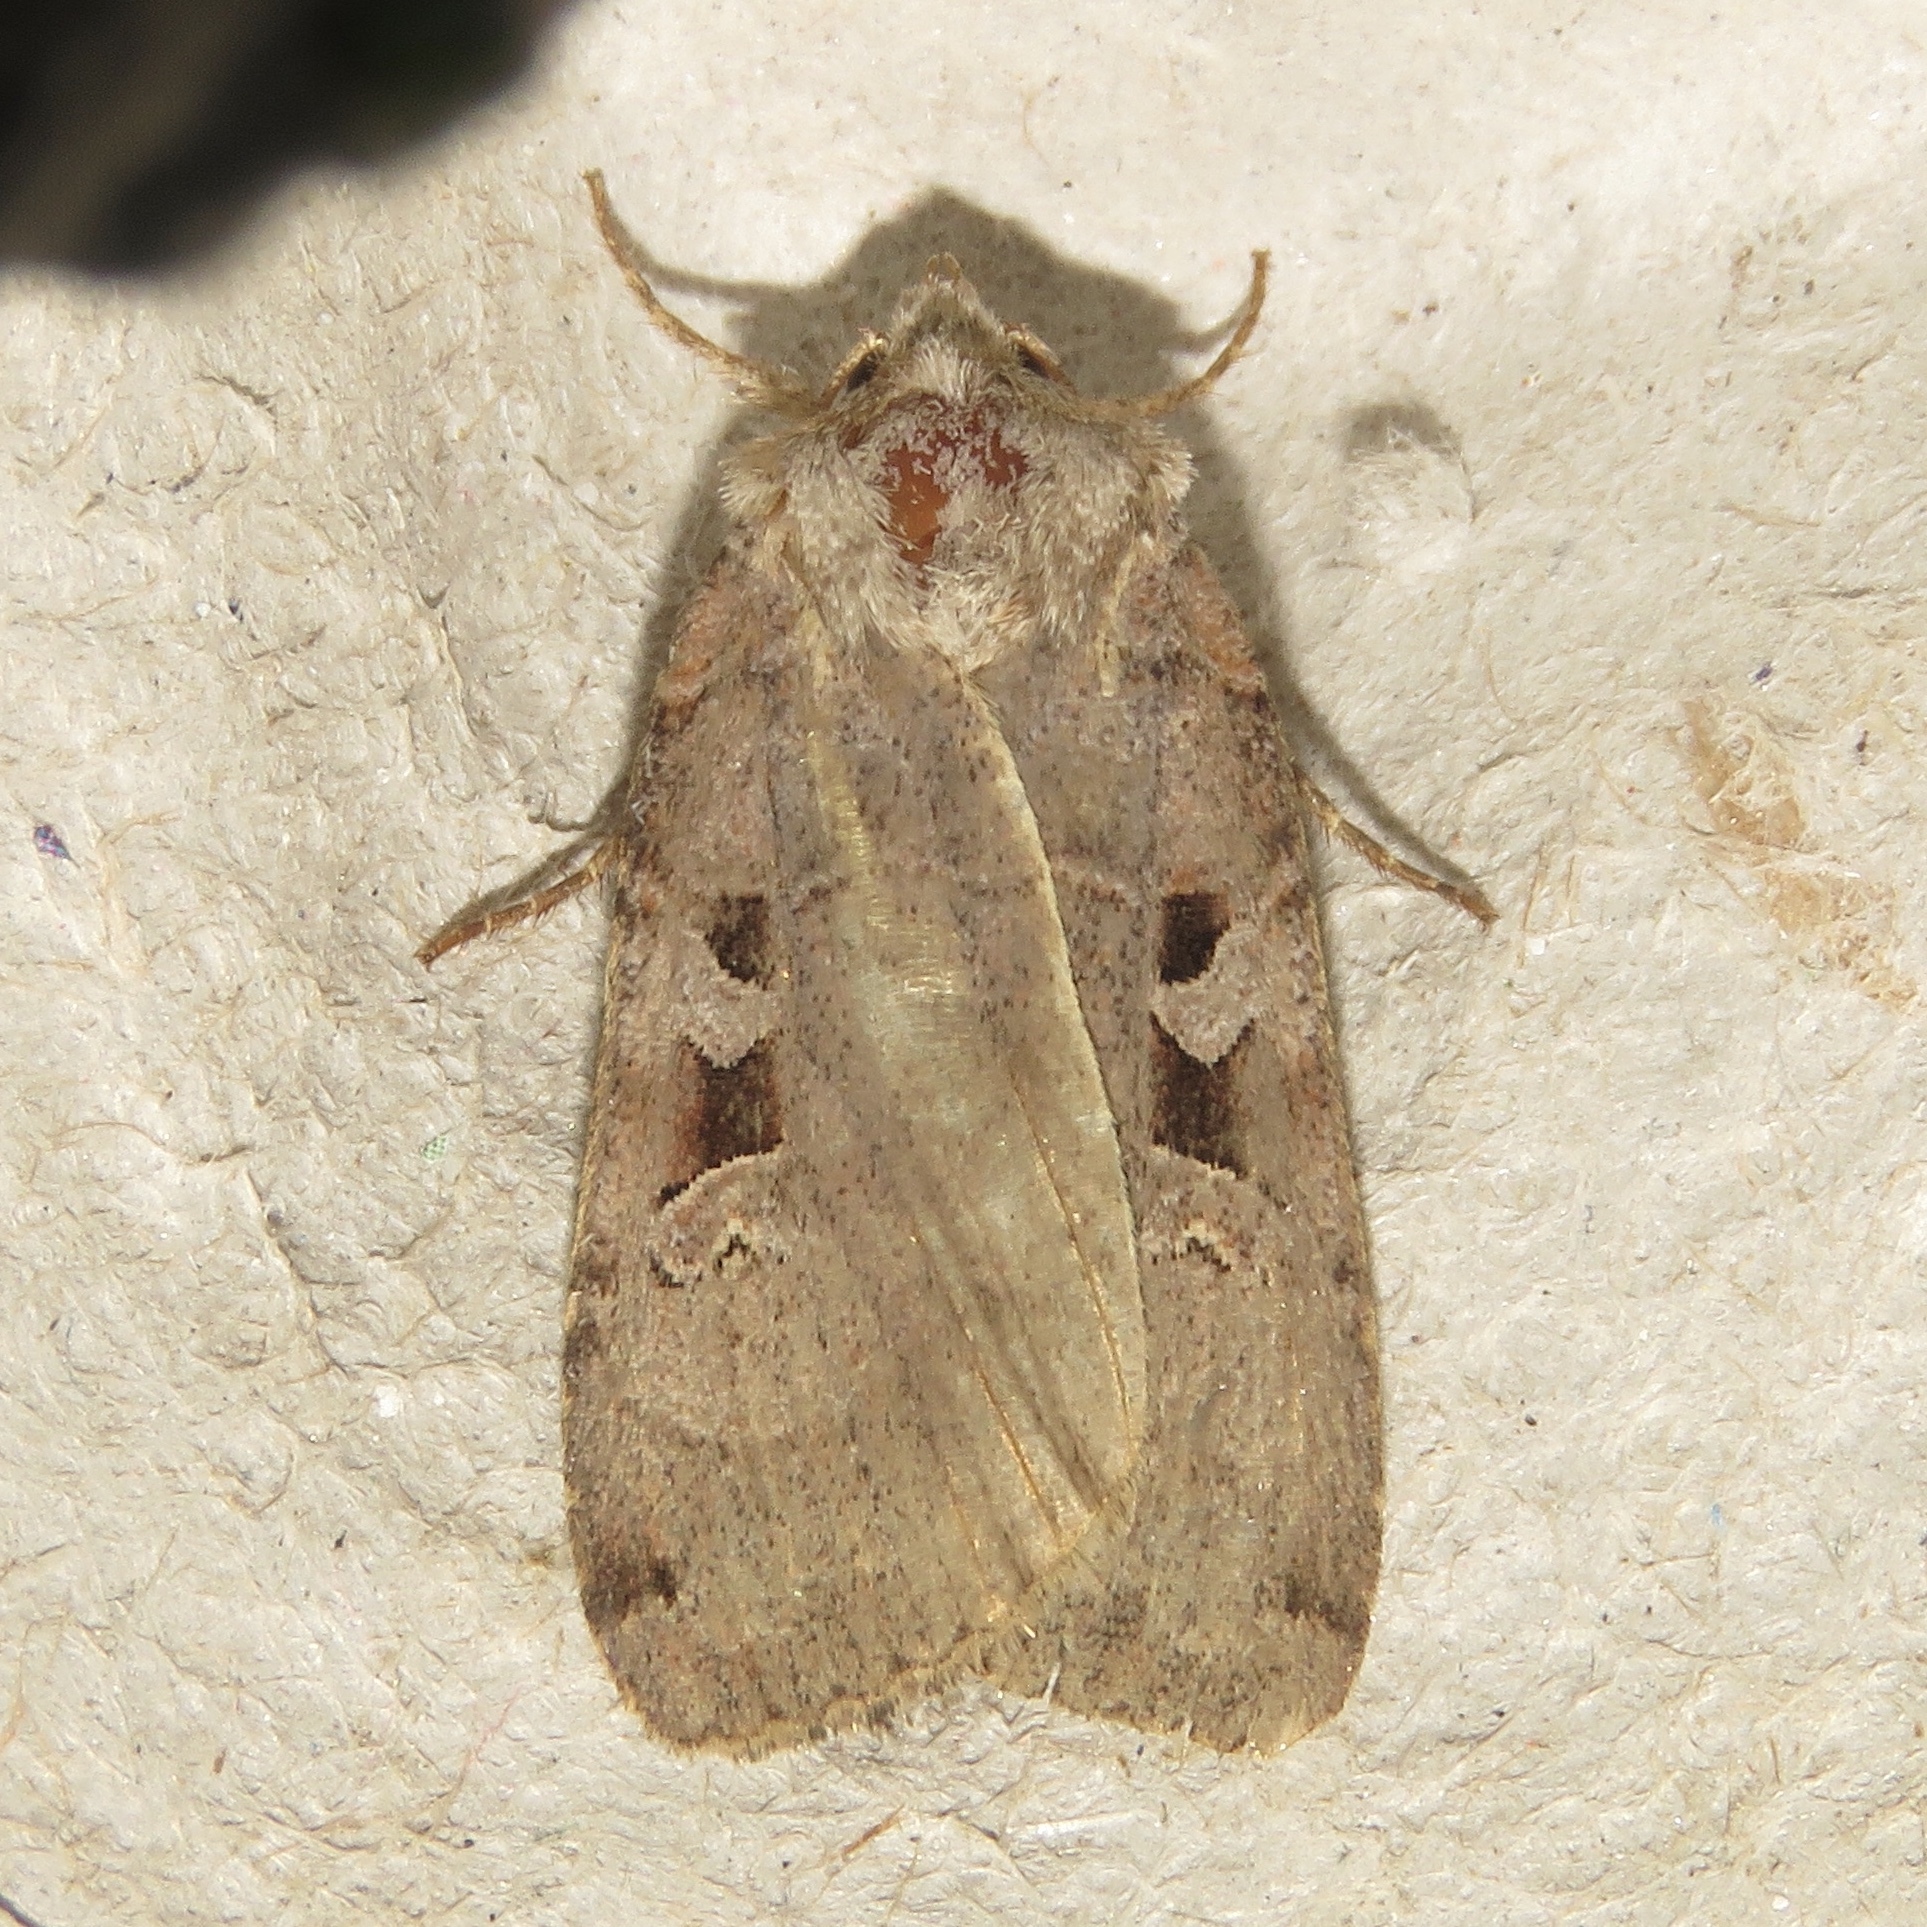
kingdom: Animalia
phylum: Arthropoda
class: Insecta
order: Lepidoptera
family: Noctuidae
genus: Xestia
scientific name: Xestia normaniana
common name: Norman's dart moth
